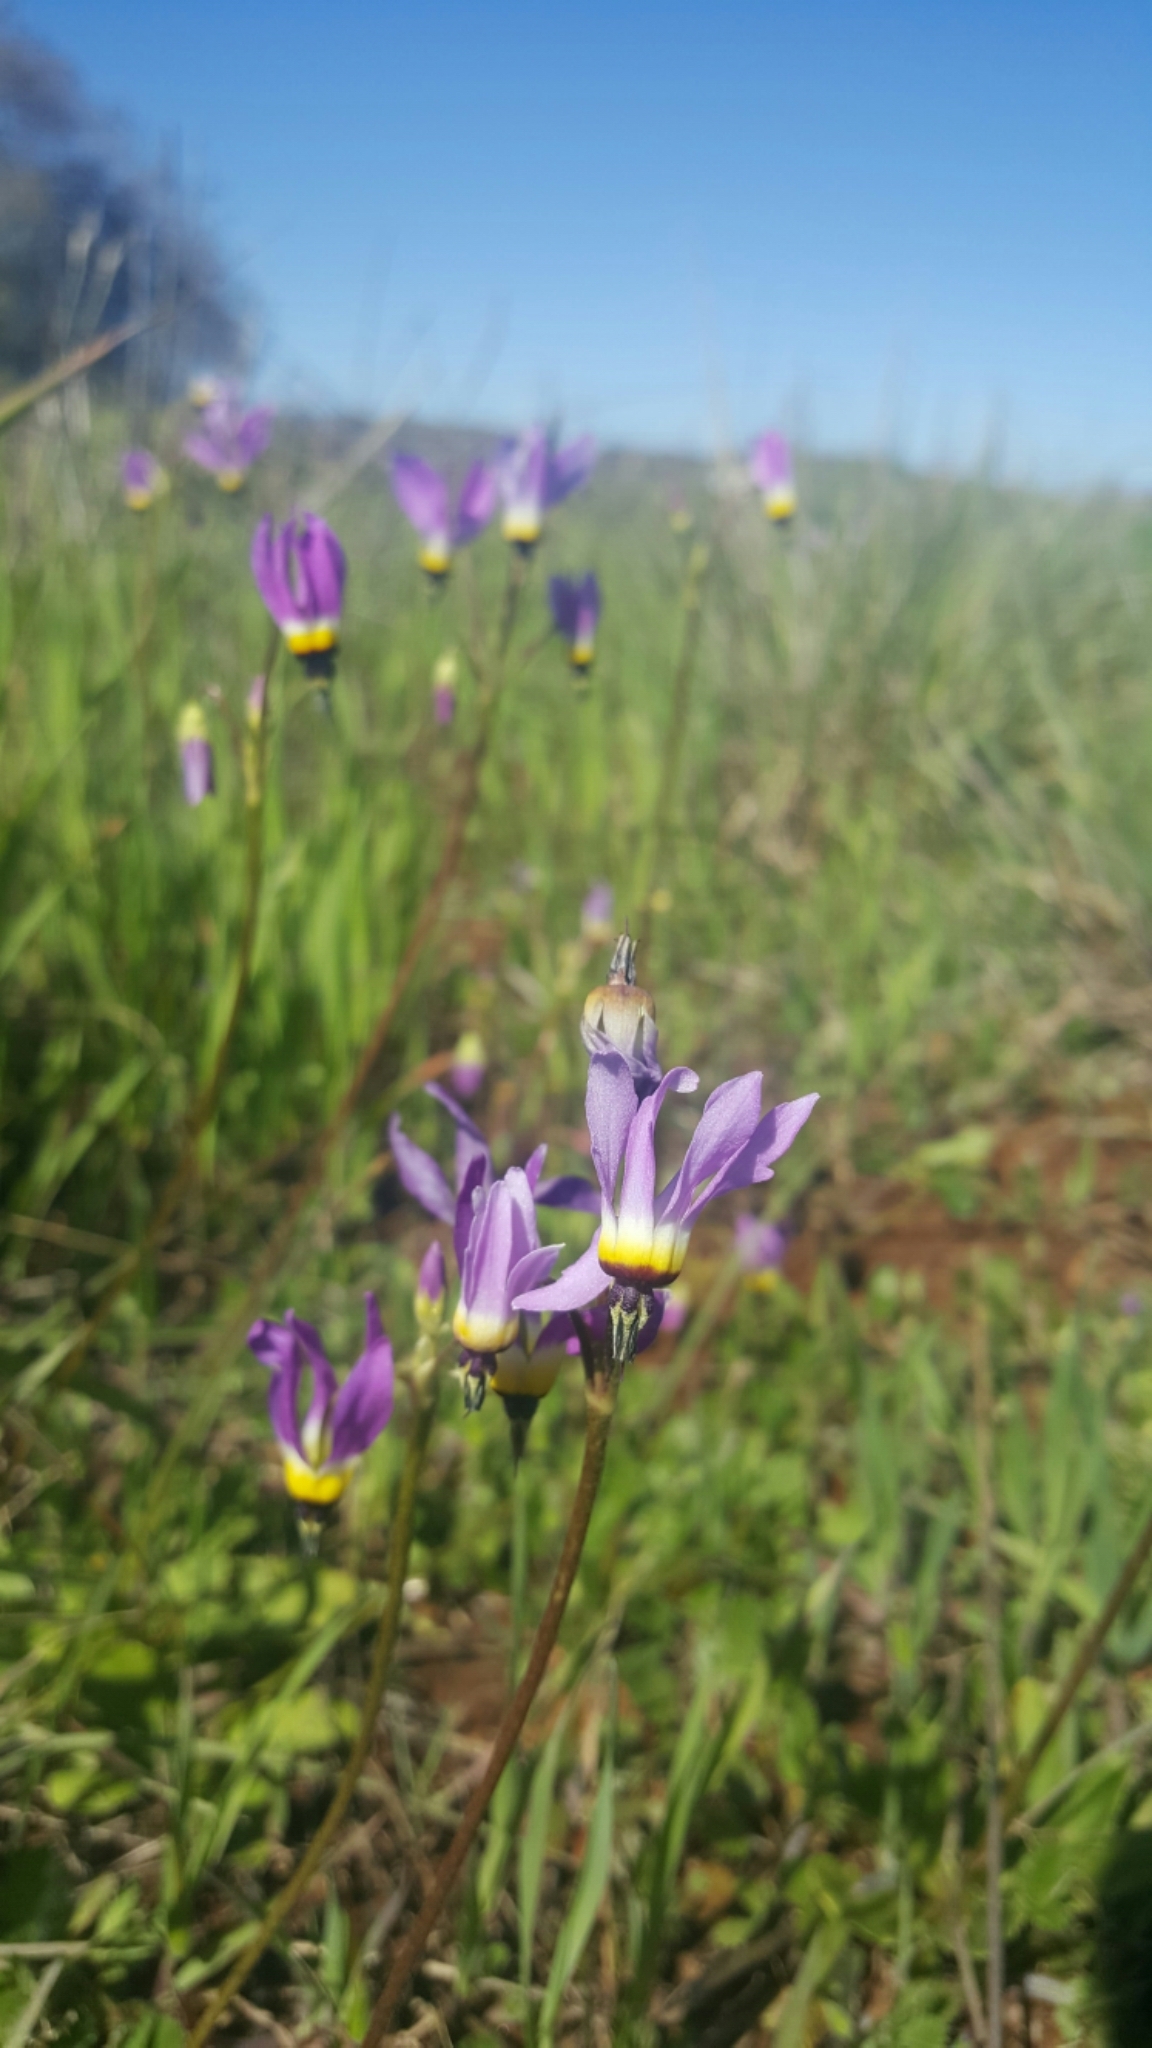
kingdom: Plantae
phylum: Tracheophyta
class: Magnoliopsida
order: Ericales
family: Primulaceae
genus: Dodecatheon
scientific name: Dodecatheon clevelandii
